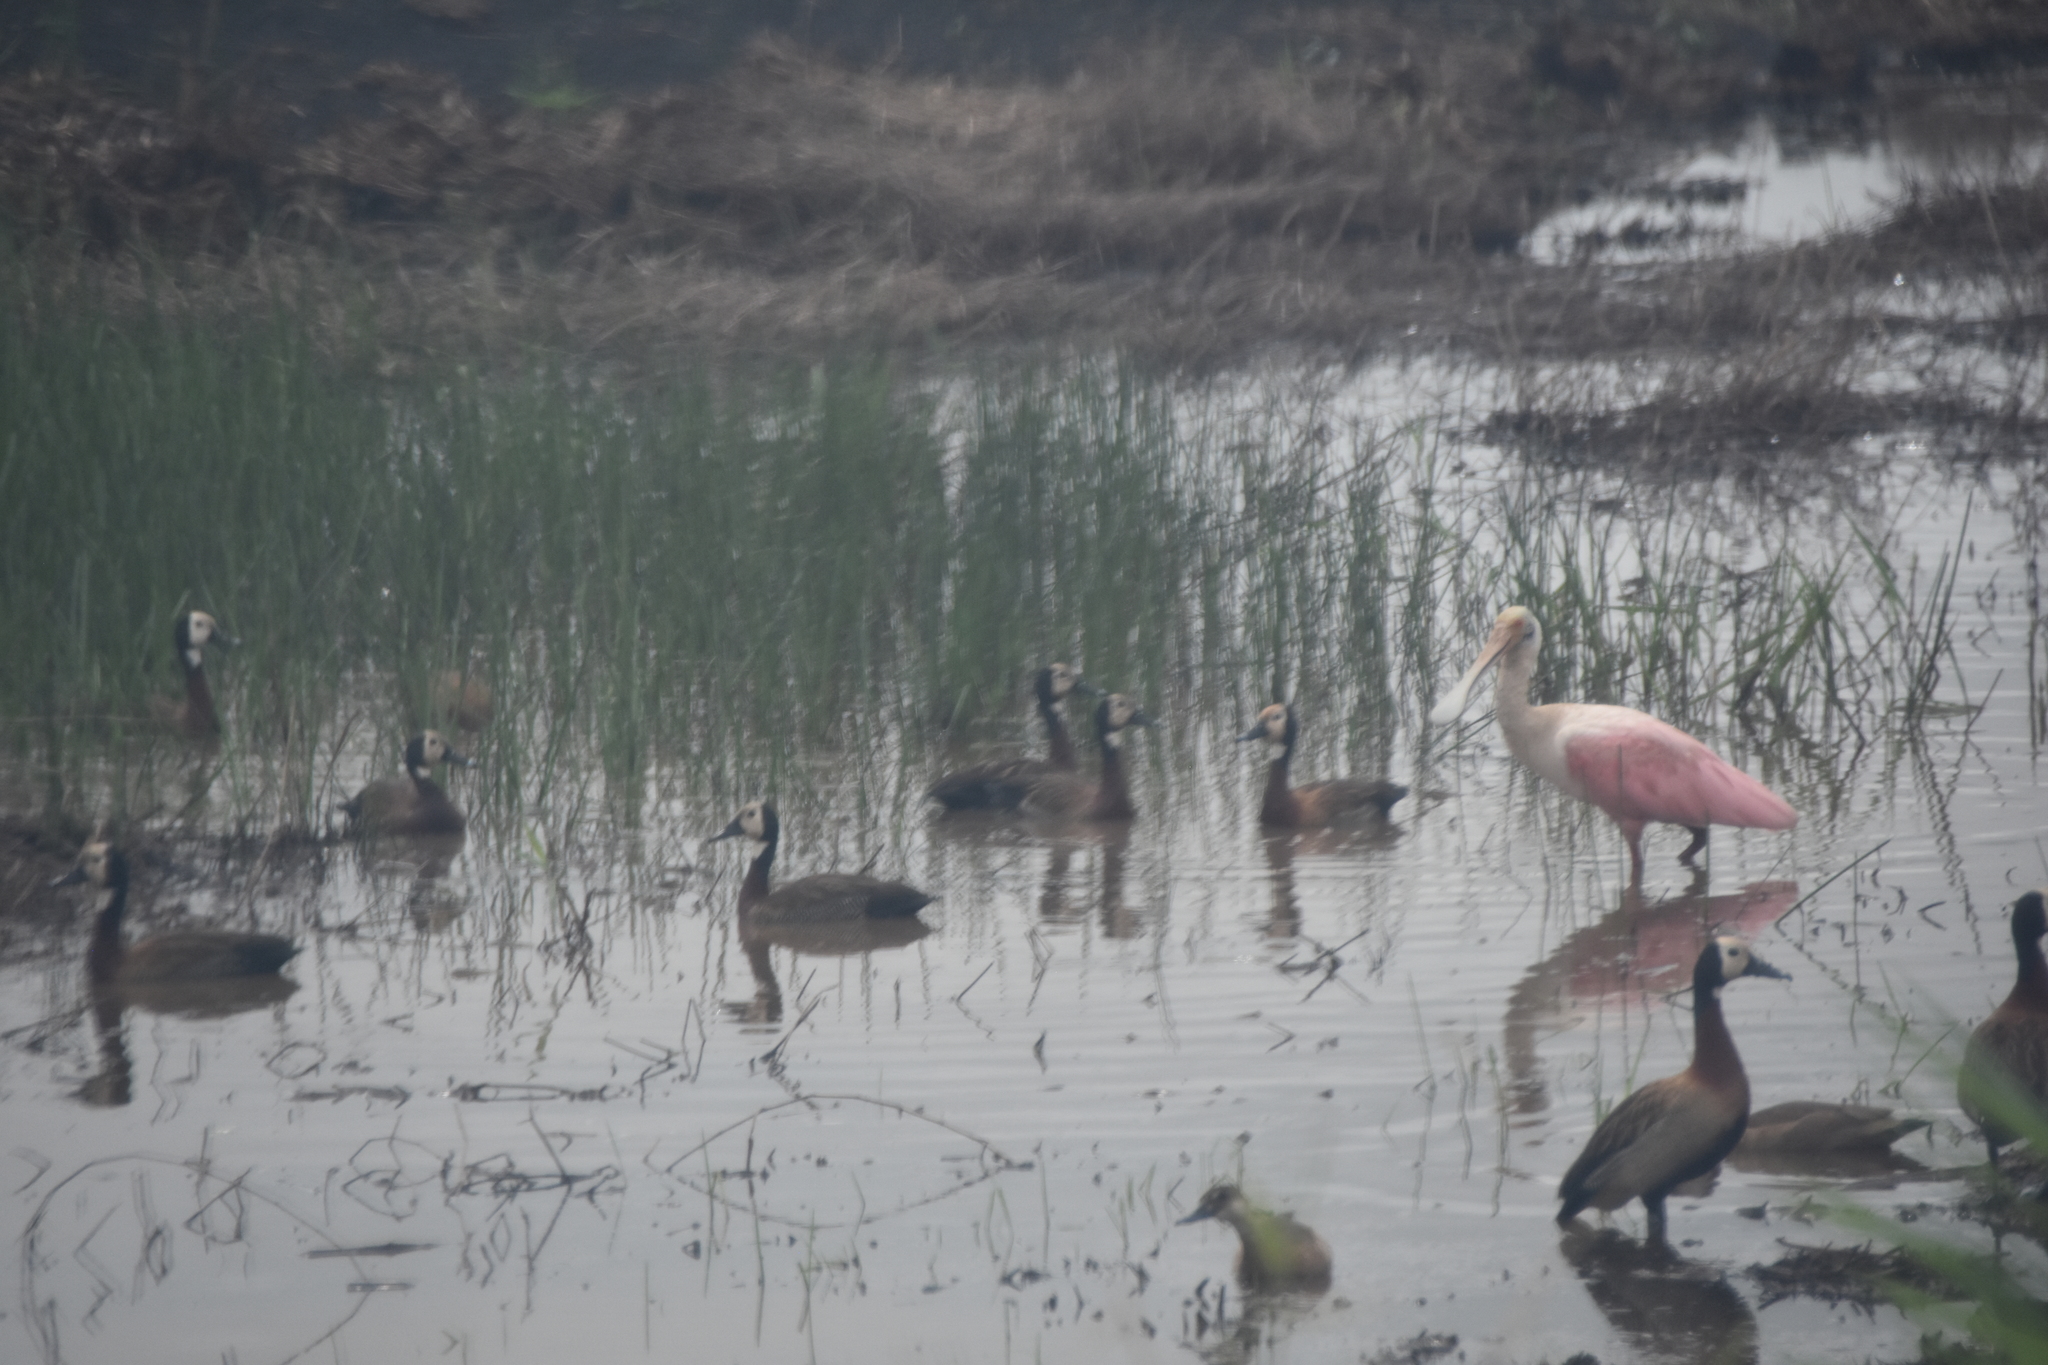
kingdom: Animalia
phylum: Chordata
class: Aves
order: Pelecaniformes
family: Threskiornithidae
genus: Platalea
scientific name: Platalea ajaja
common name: Roseate spoonbill
